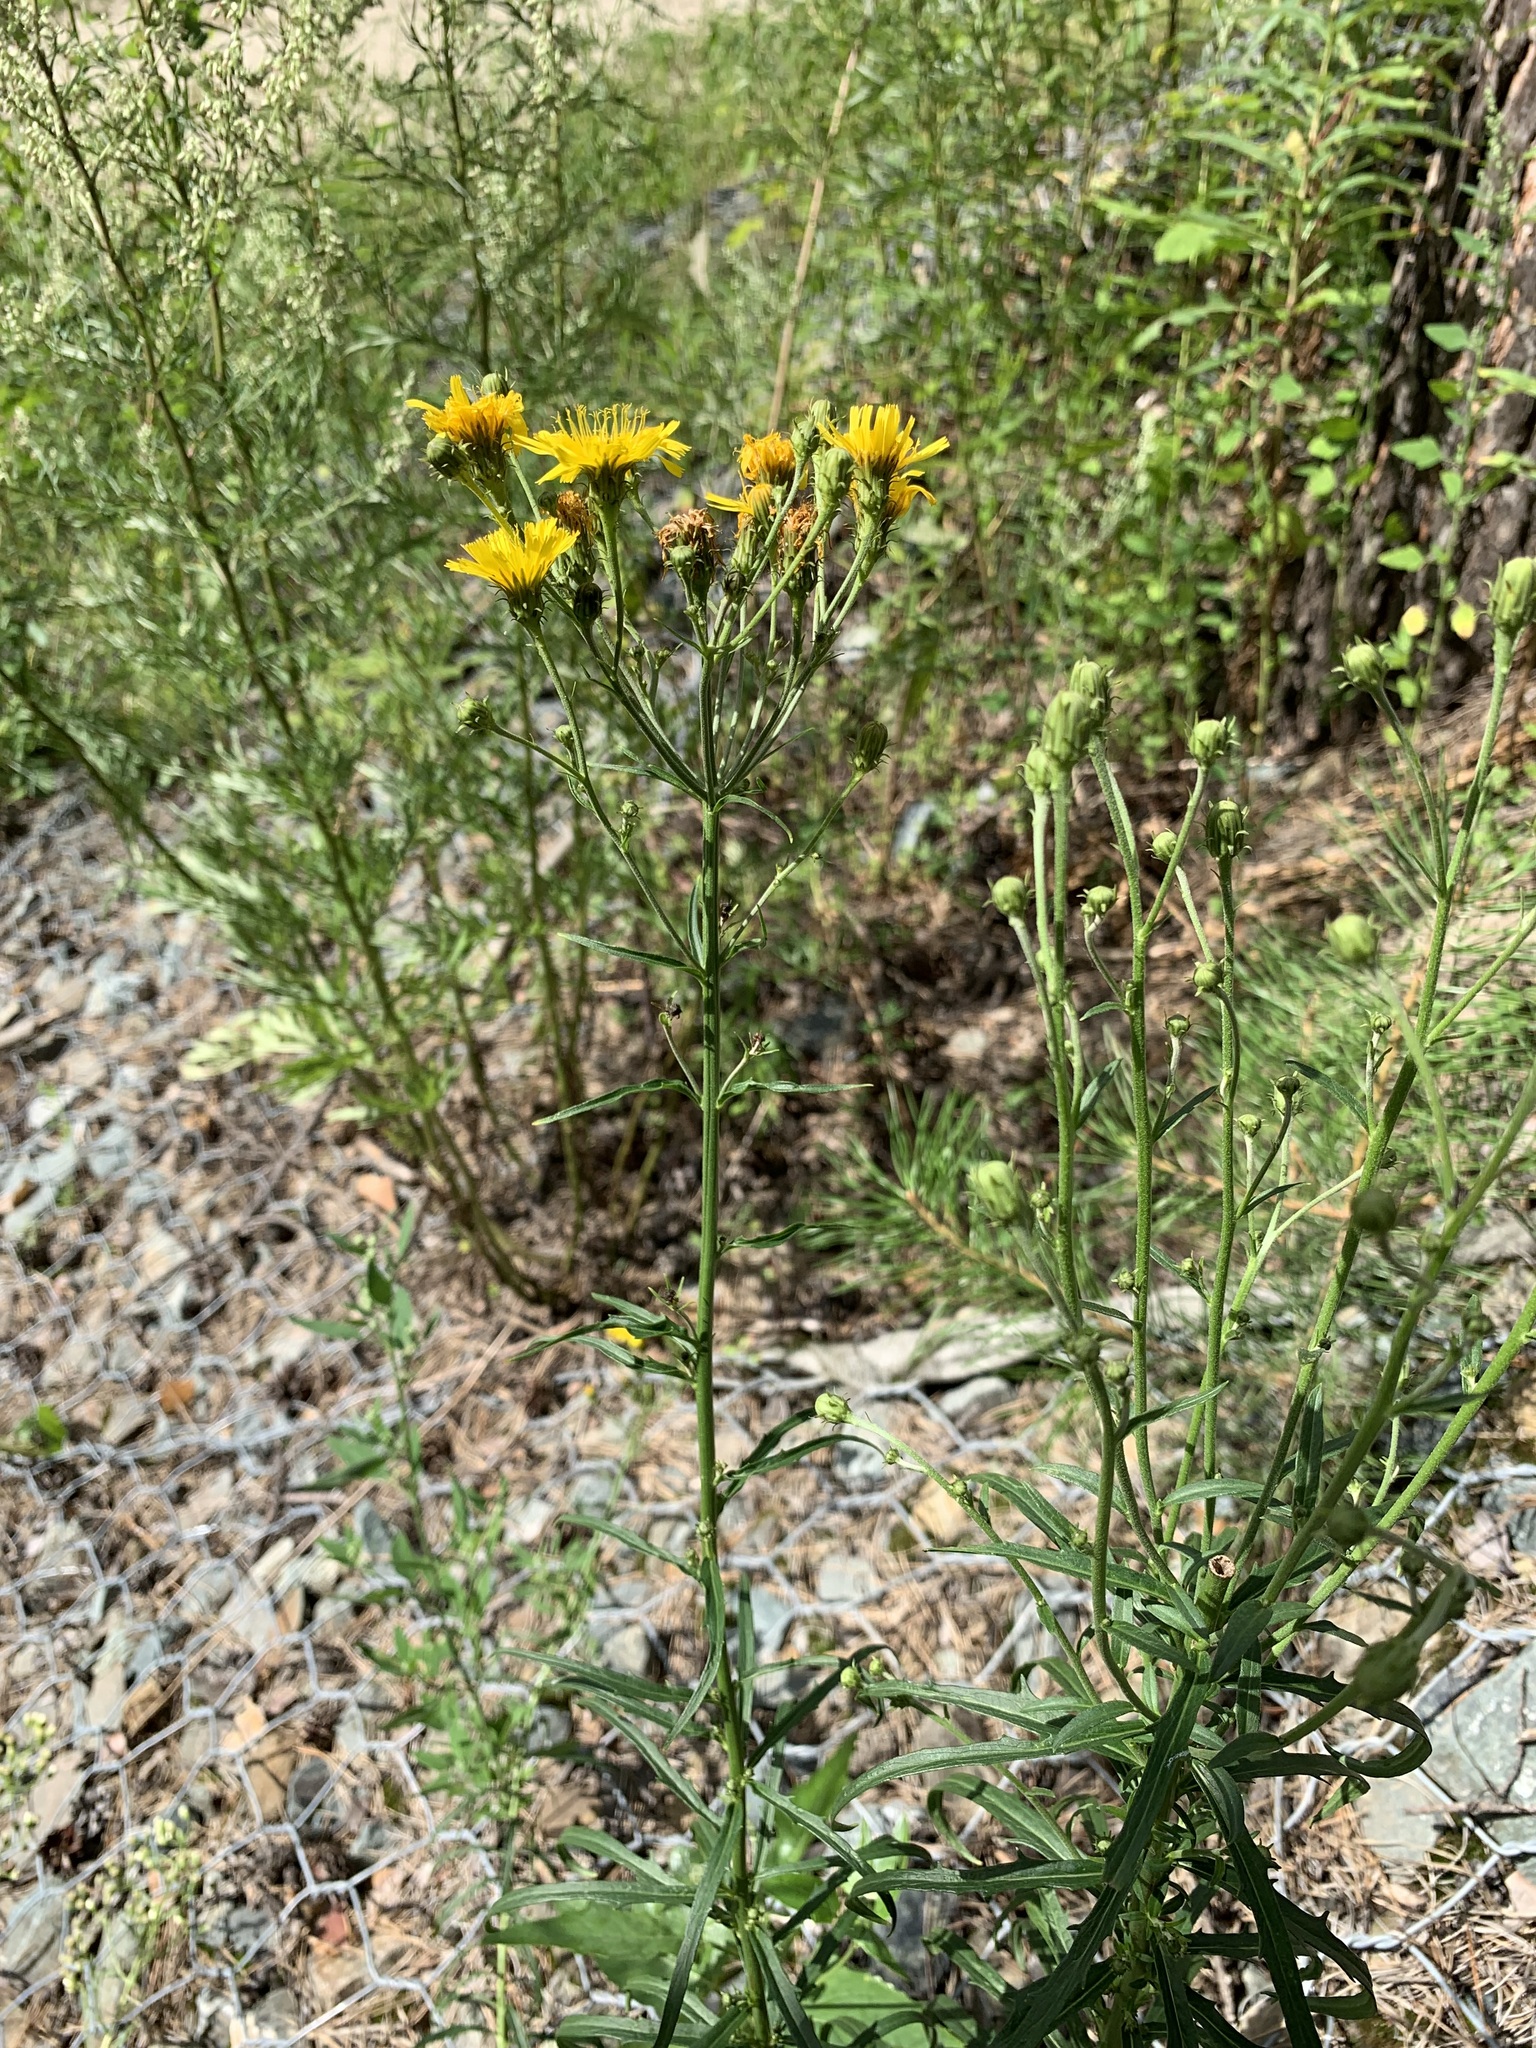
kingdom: Plantae
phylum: Tracheophyta
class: Magnoliopsida
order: Asterales
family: Asteraceae
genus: Hieracium
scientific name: Hieracium umbellatum
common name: Northern hawkweed
